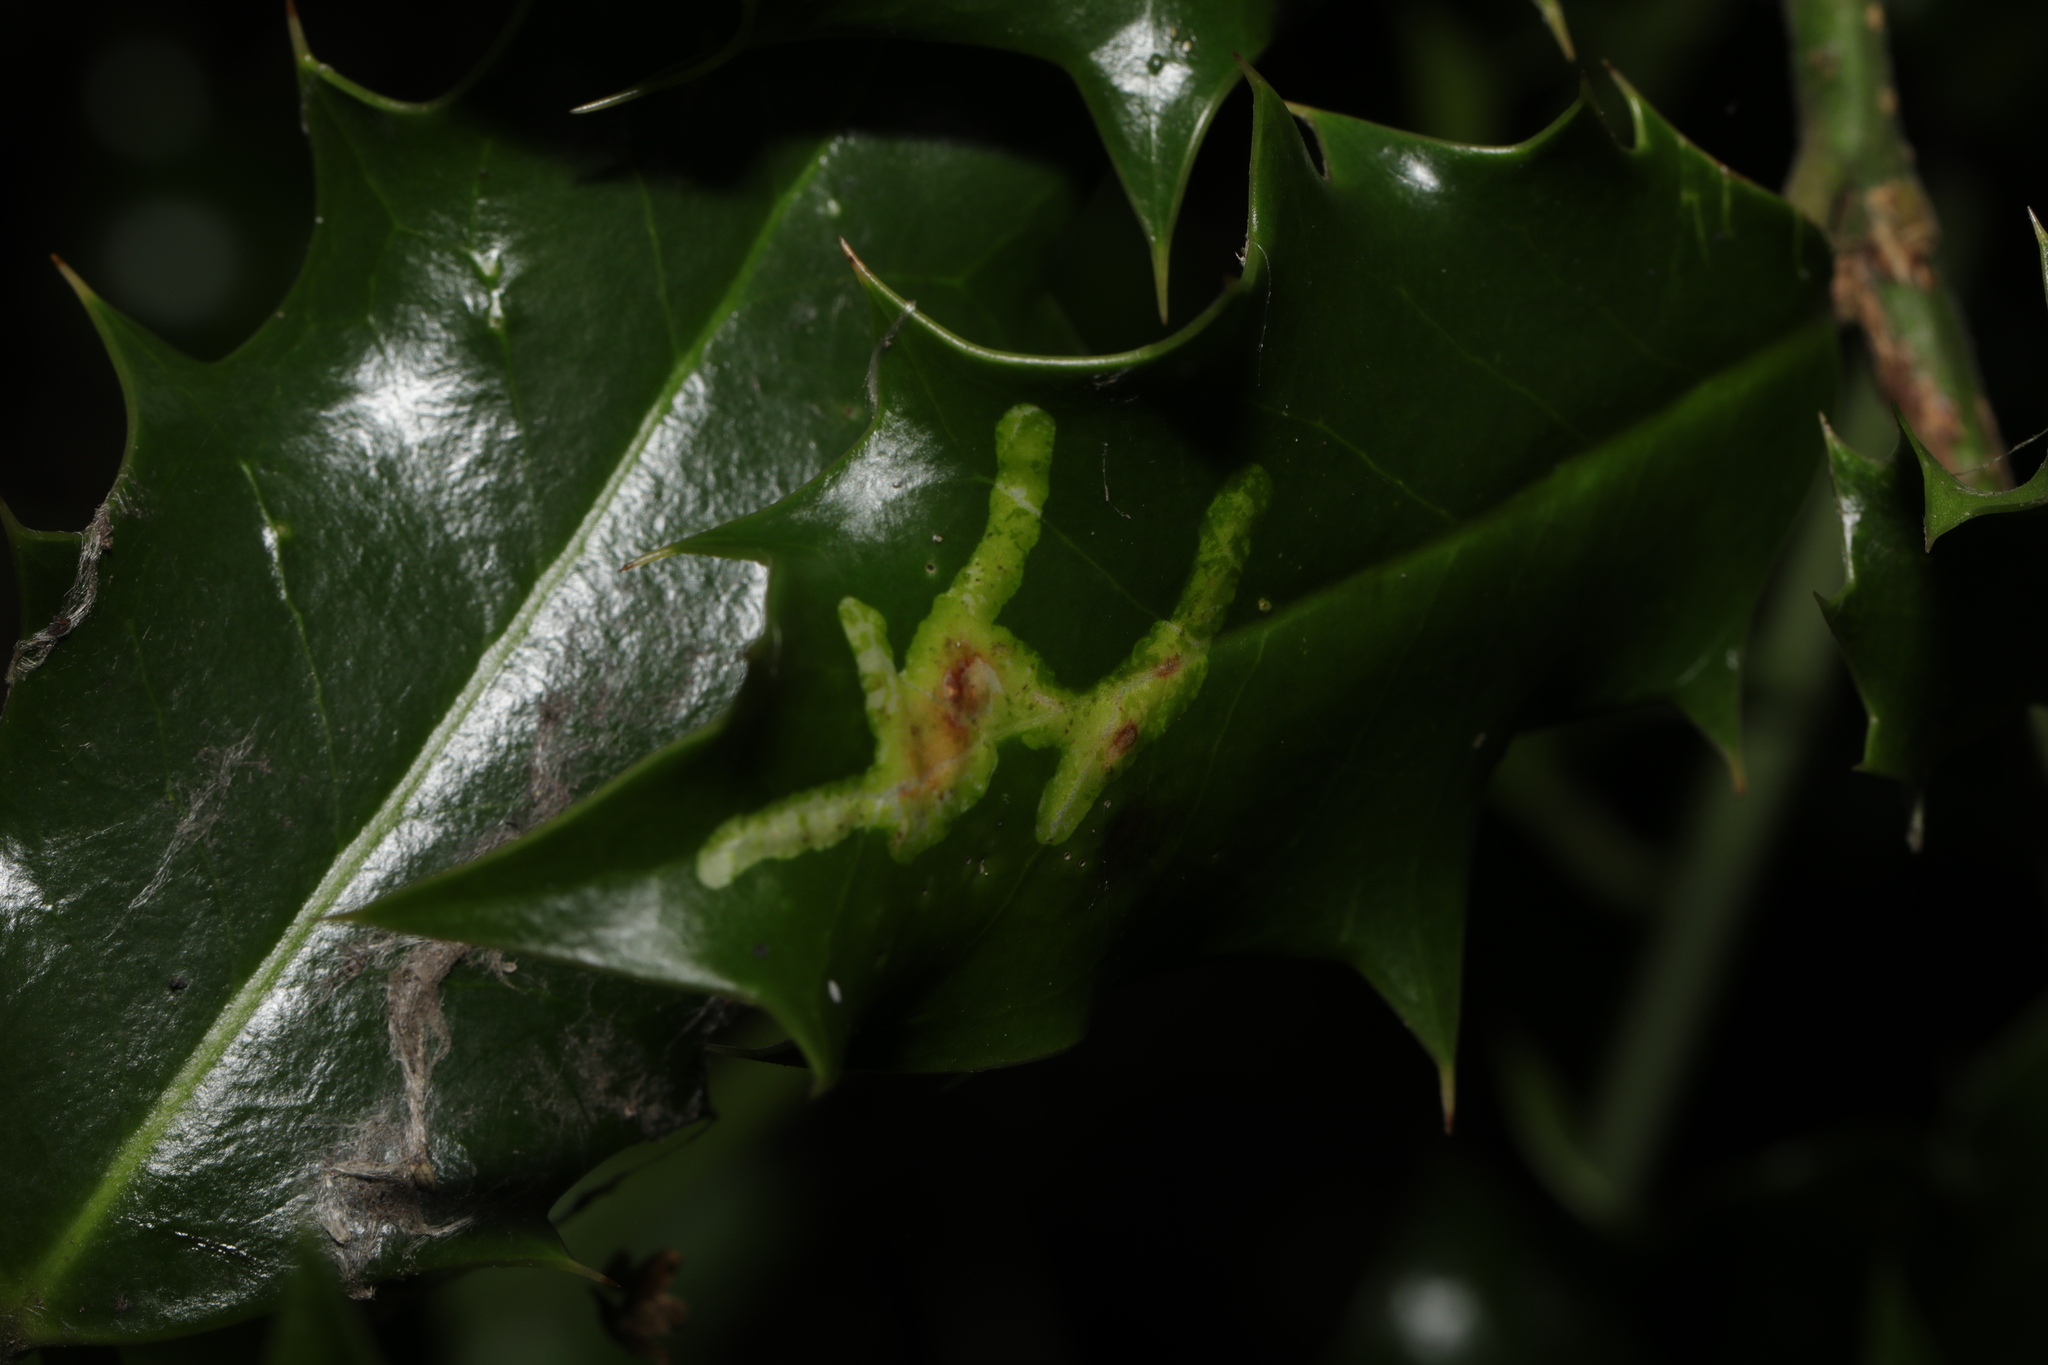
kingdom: Animalia
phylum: Arthropoda
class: Insecta
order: Diptera
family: Agromyzidae
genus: Phytomyza
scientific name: Phytomyza ilicis
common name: Holly leafminer
